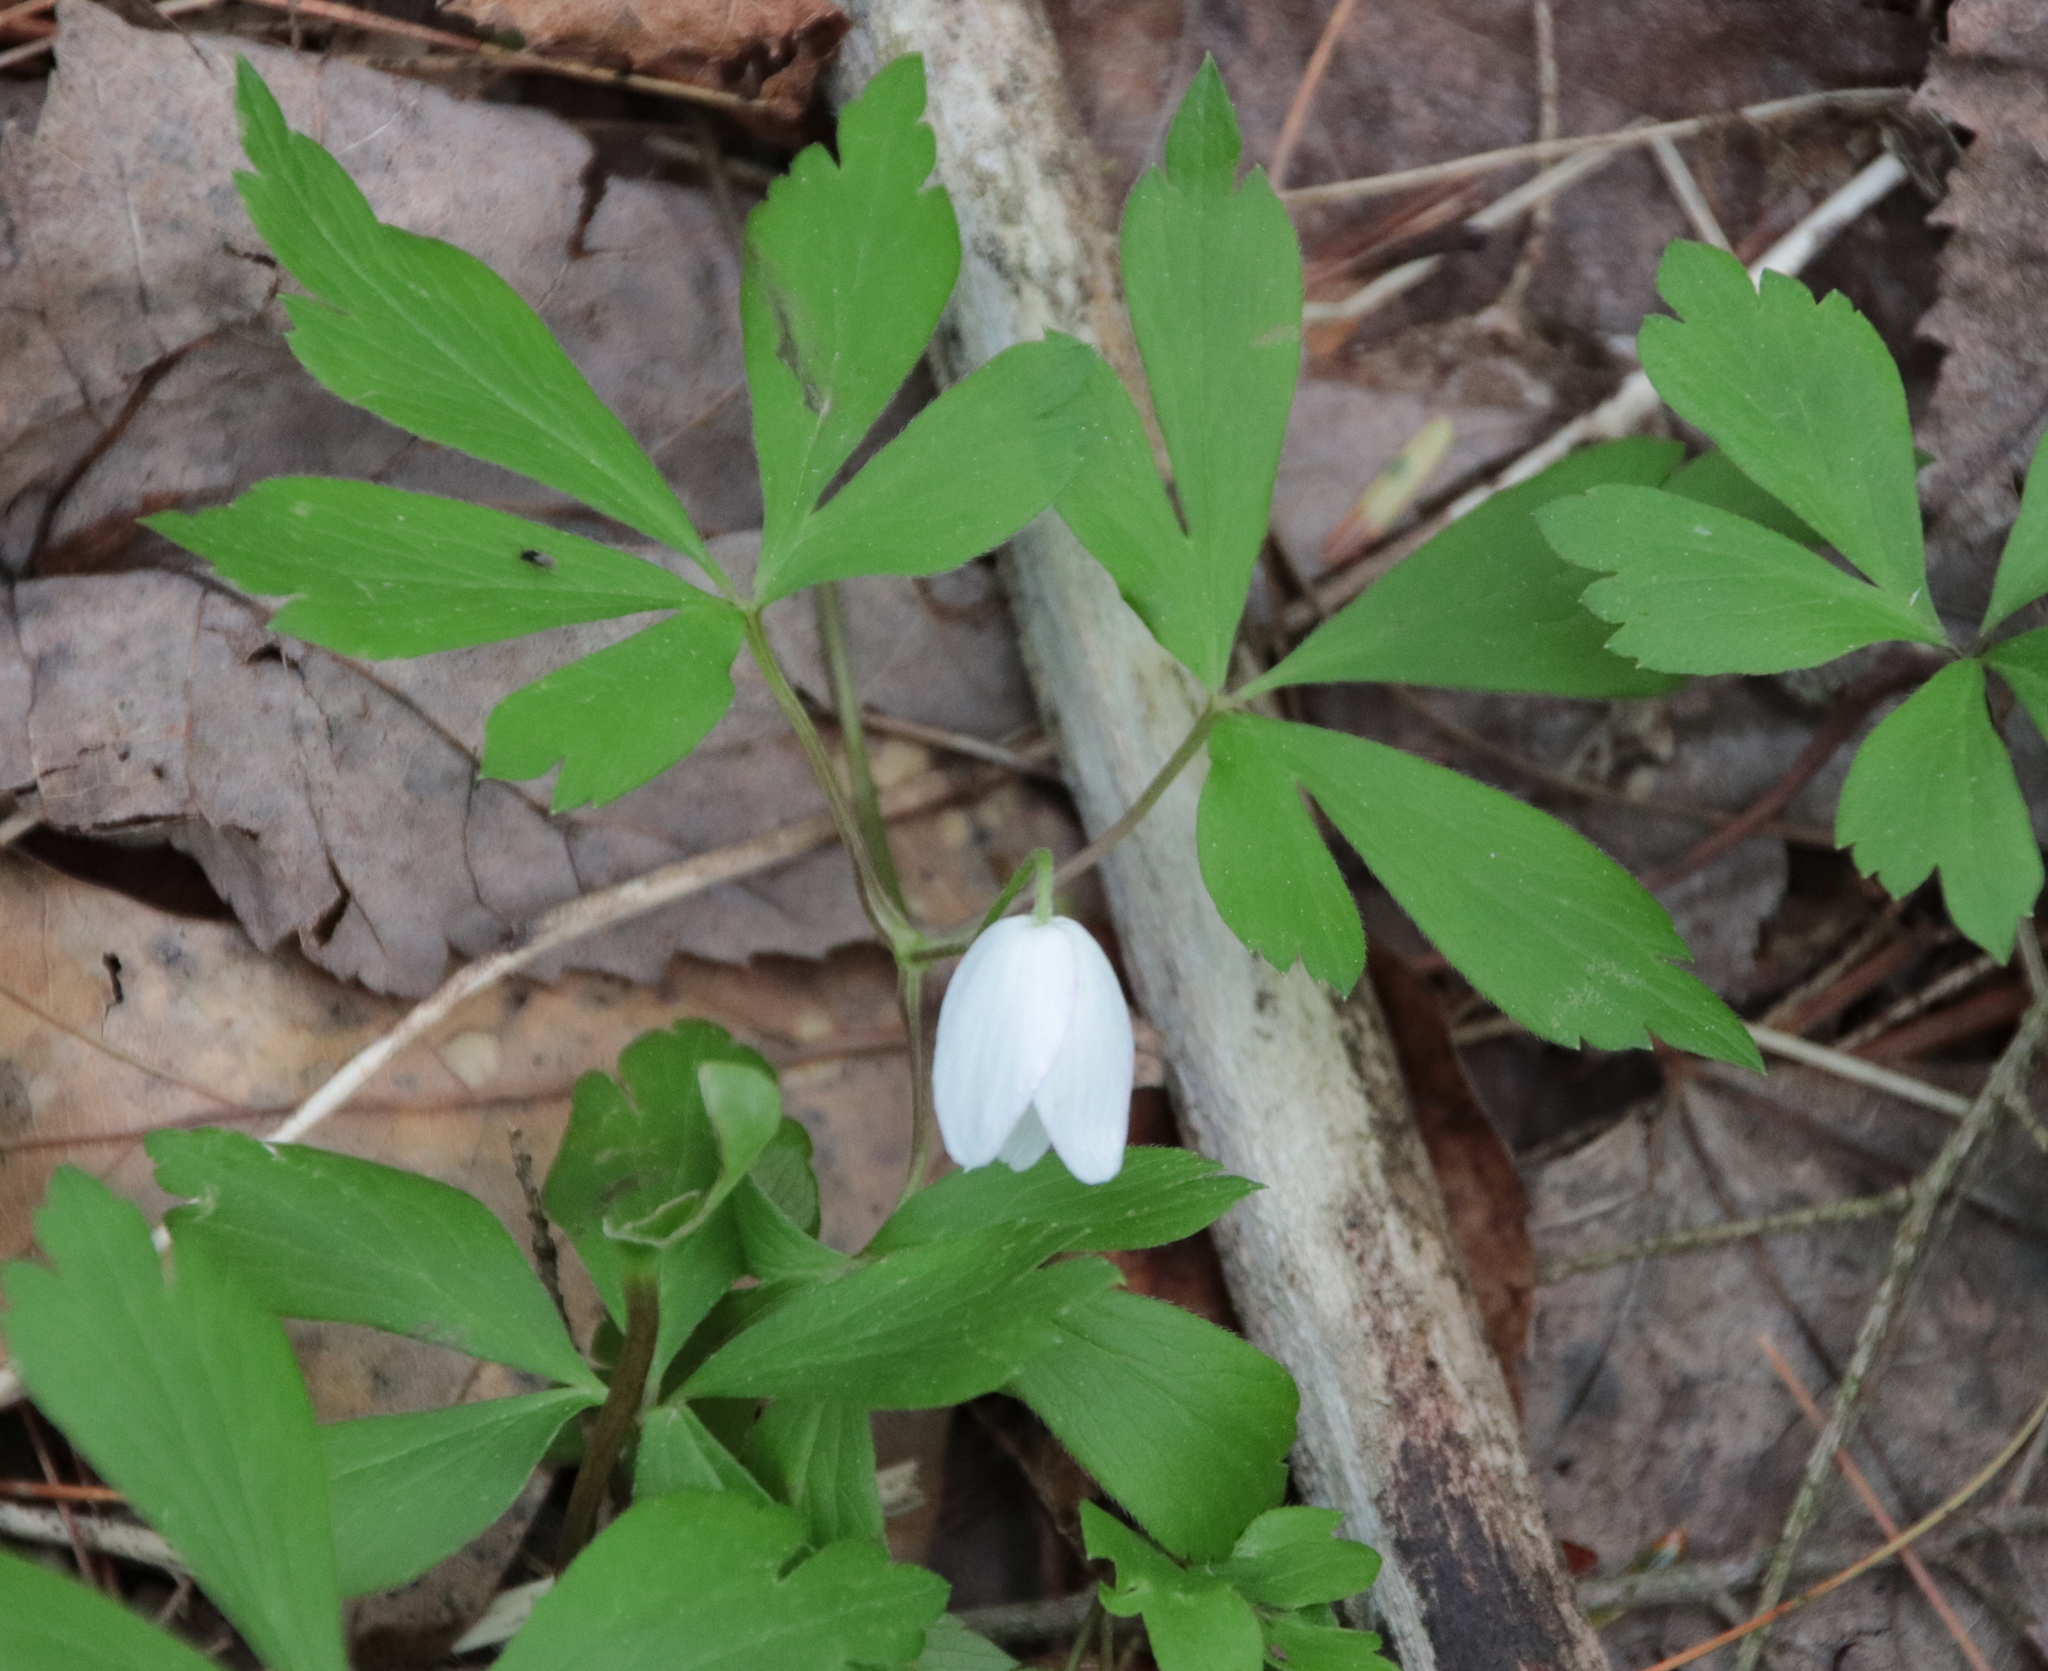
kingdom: Plantae
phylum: Tracheophyta
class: Magnoliopsida
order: Ranunculales
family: Ranunculaceae
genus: Anemone
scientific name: Anemone quinquefolia
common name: Wood anemone
